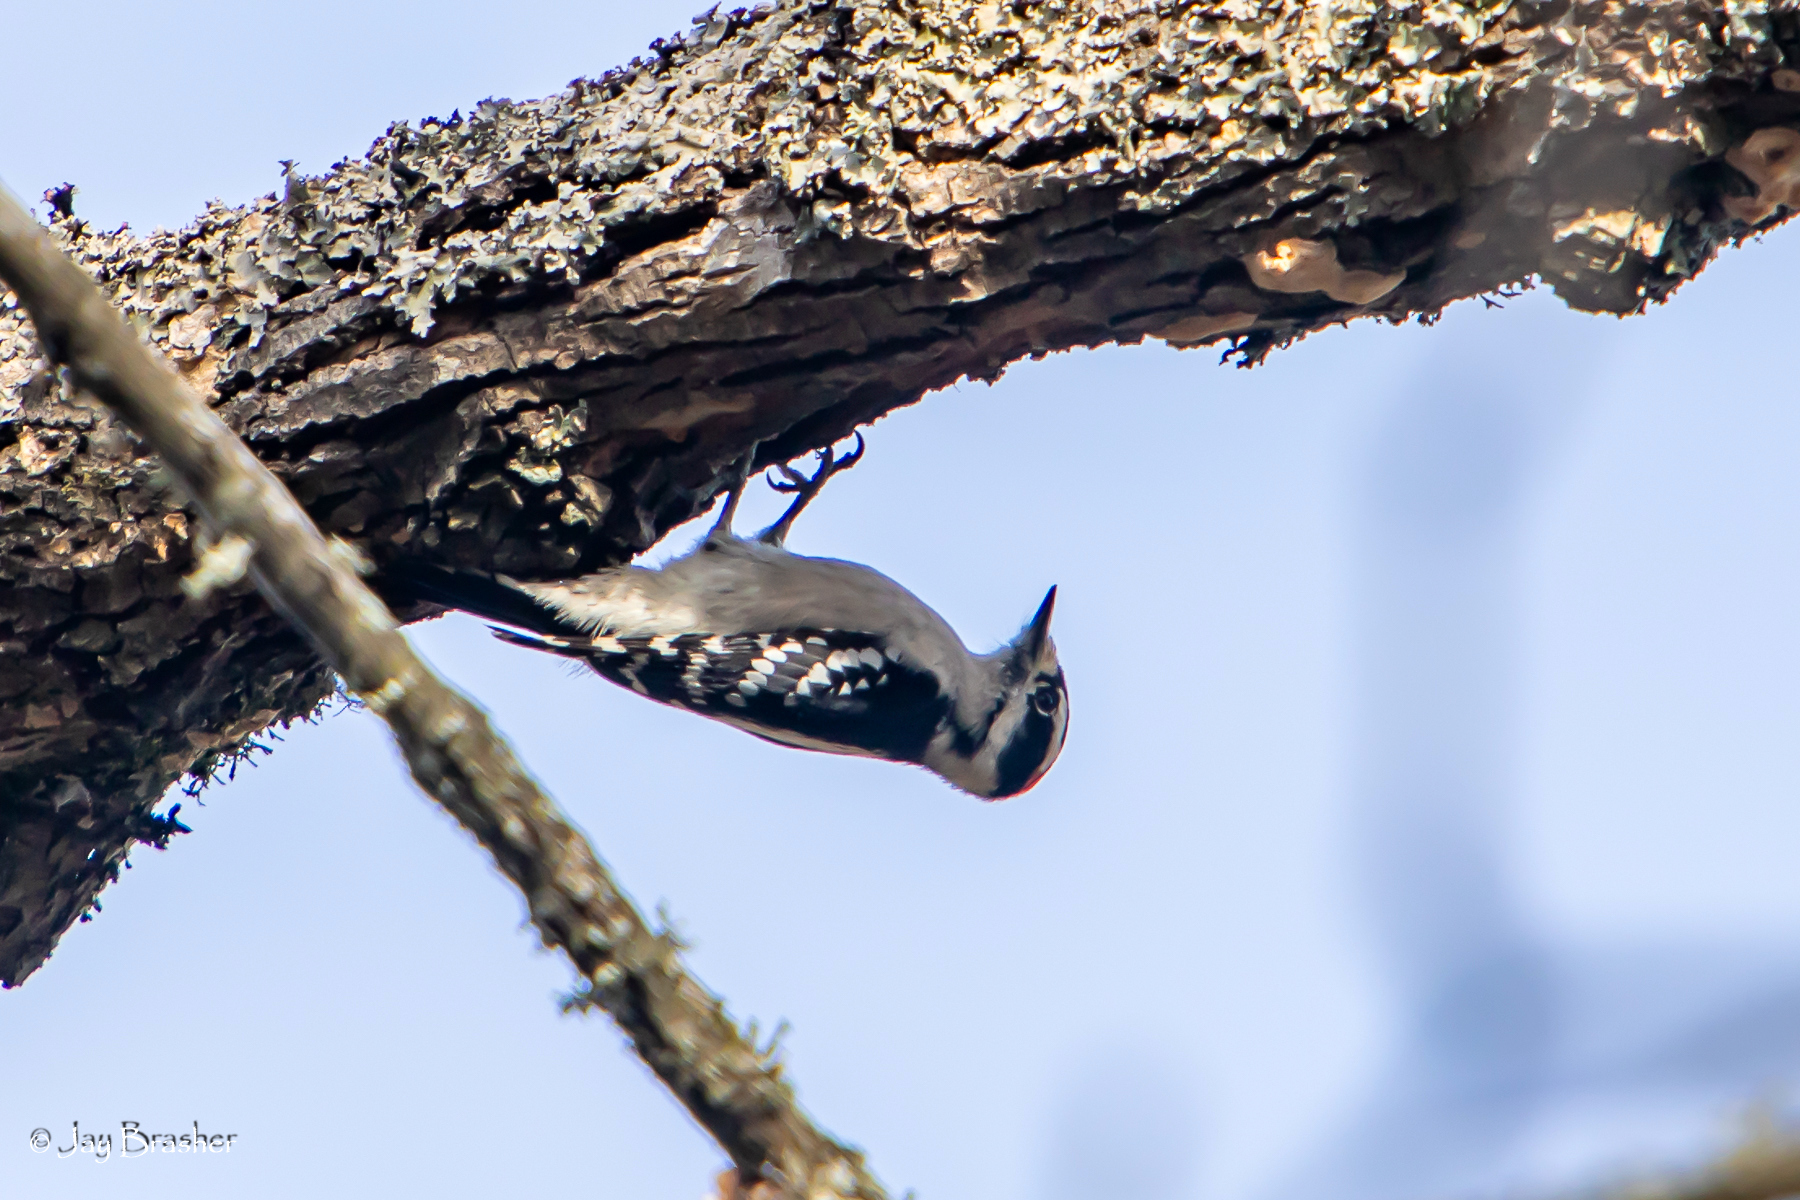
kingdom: Animalia
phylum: Chordata
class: Aves
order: Piciformes
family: Picidae
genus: Dryobates
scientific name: Dryobates pubescens
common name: Downy woodpecker
